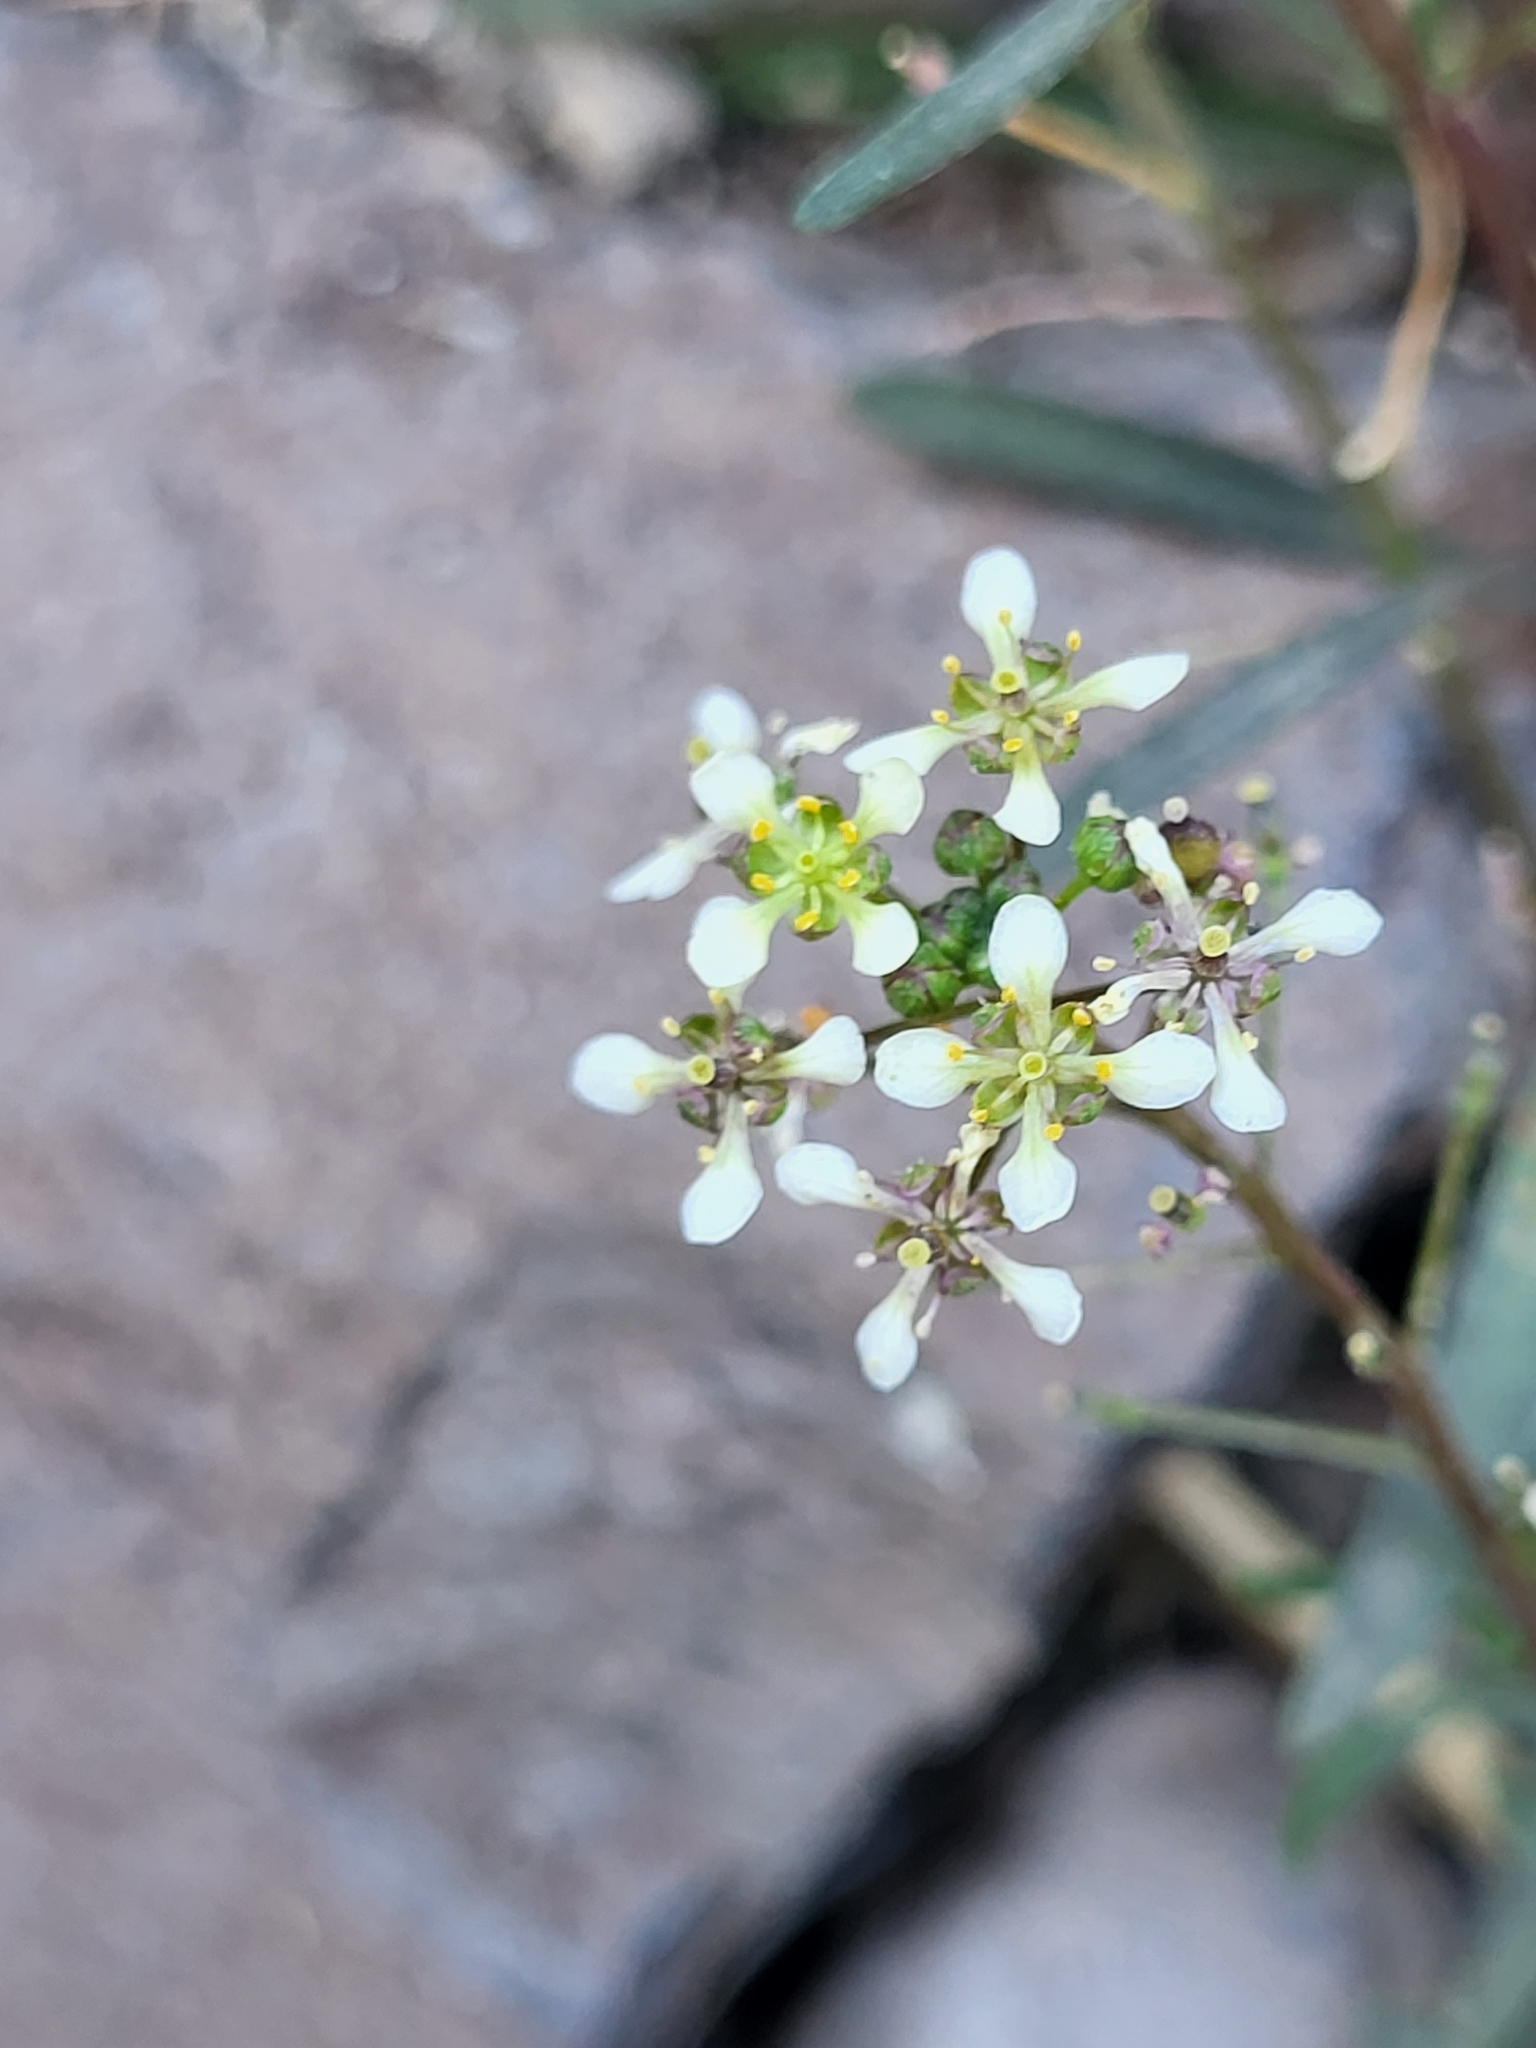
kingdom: Plantae
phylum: Tracheophyta
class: Magnoliopsida
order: Brassicales
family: Brassicaceae
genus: Lobularia
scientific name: Lobularia canariensis
